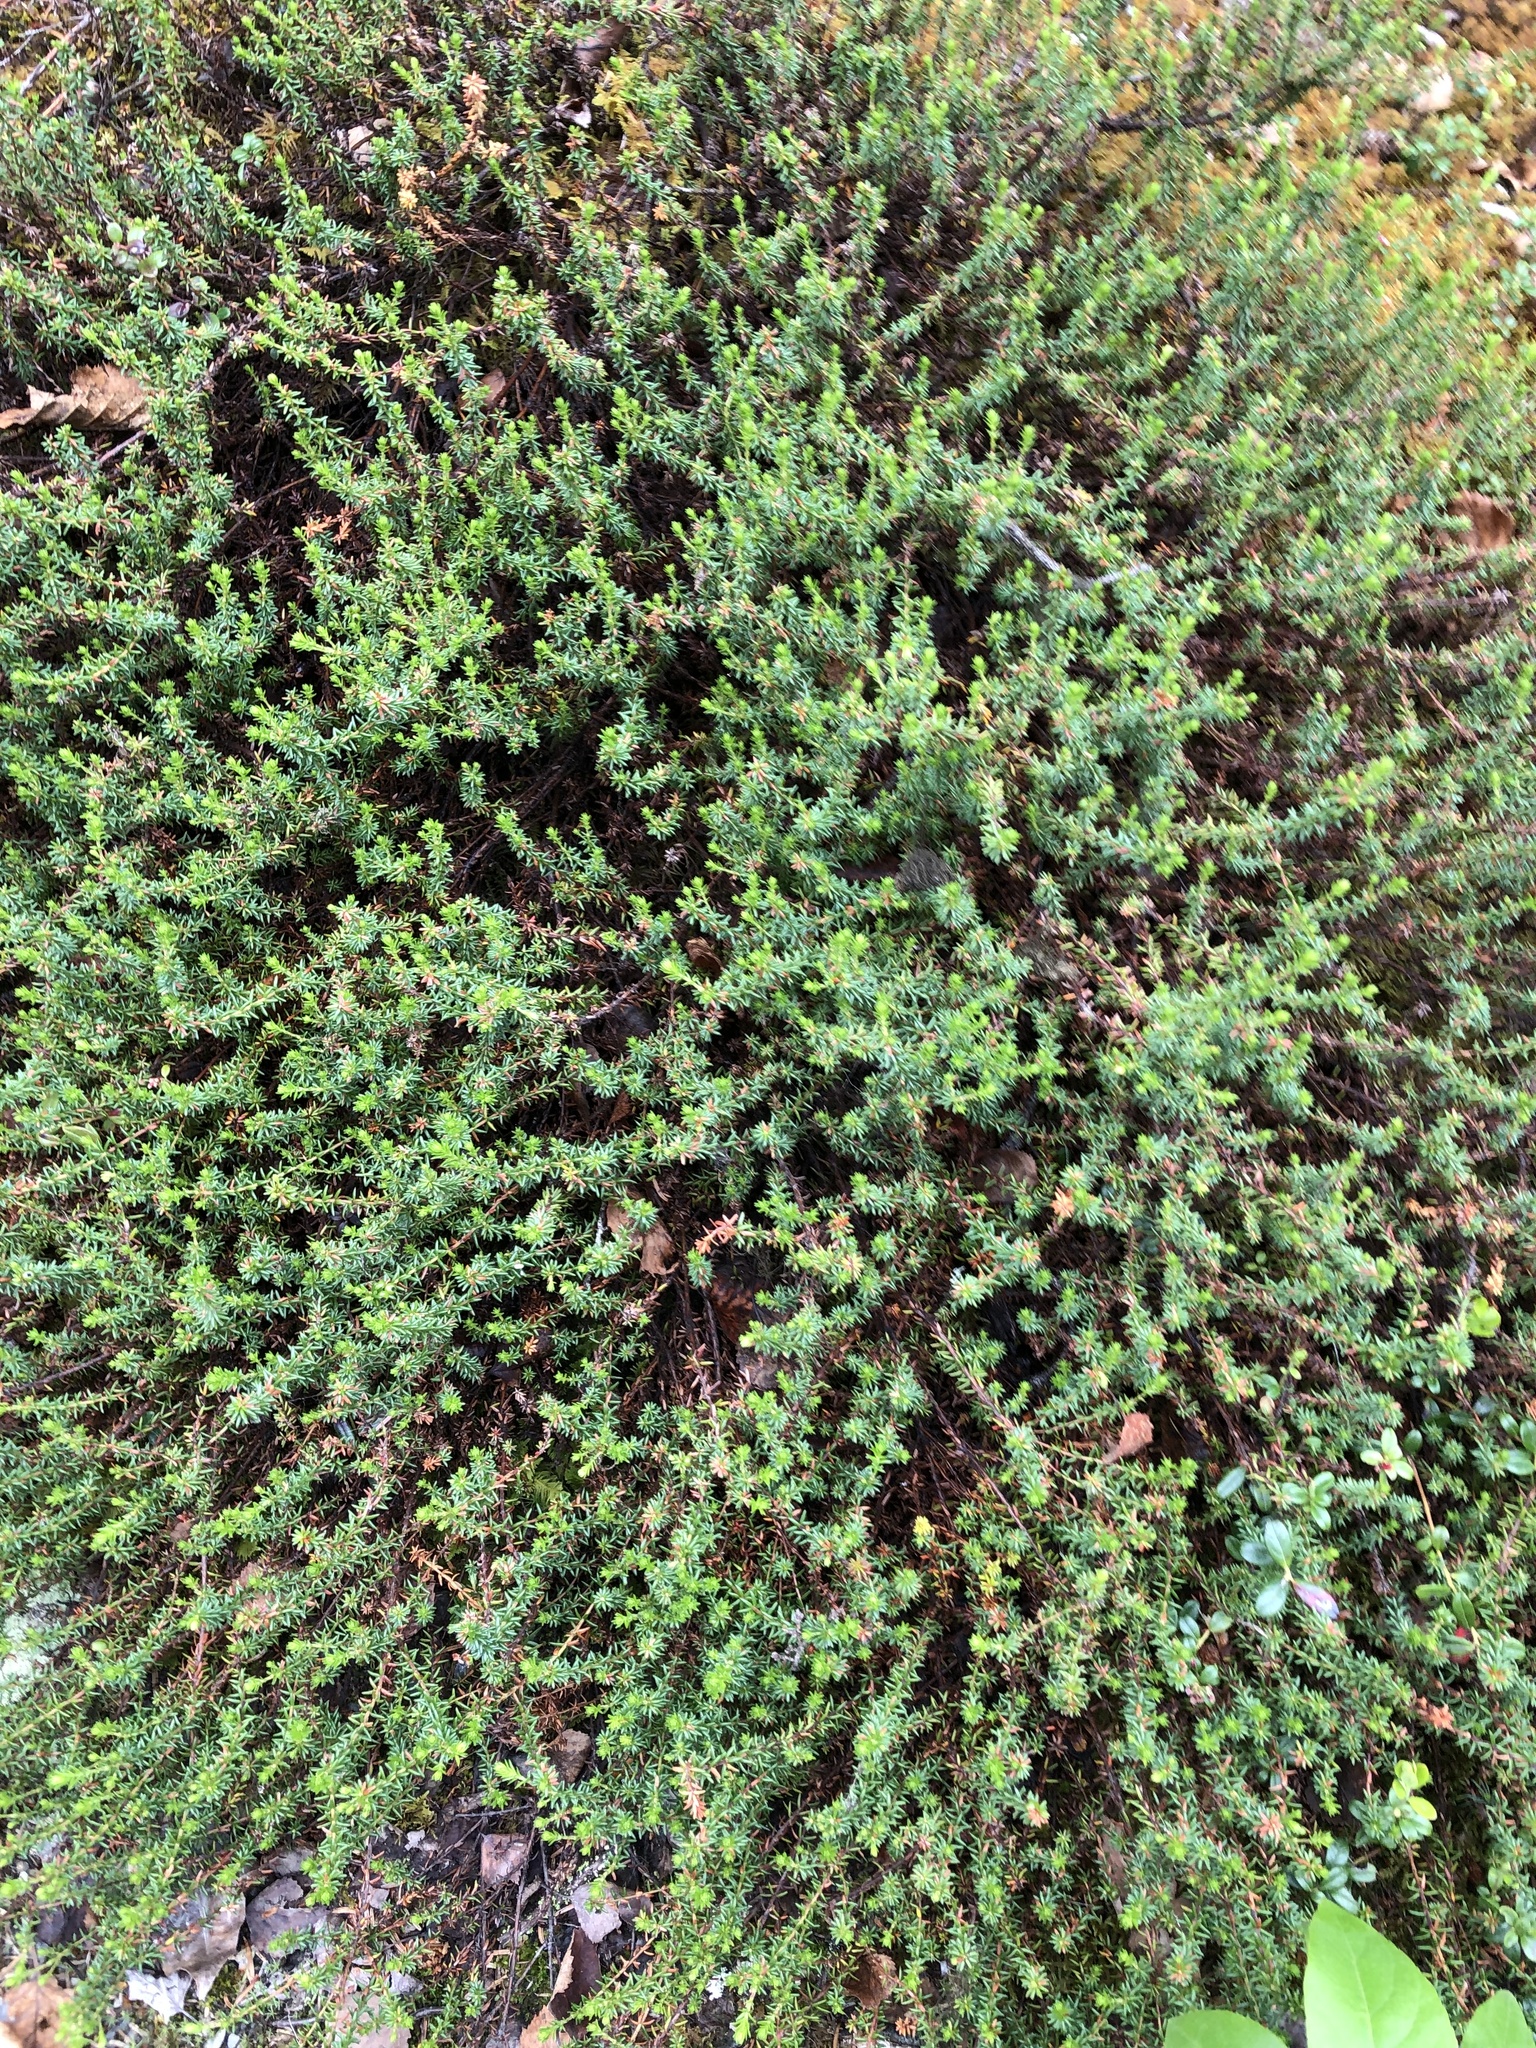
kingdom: Plantae
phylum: Tracheophyta
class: Magnoliopsida
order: Ericales
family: Ericaceae
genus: Empetrum
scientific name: Empetrum nigrum
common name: Black crowberry
